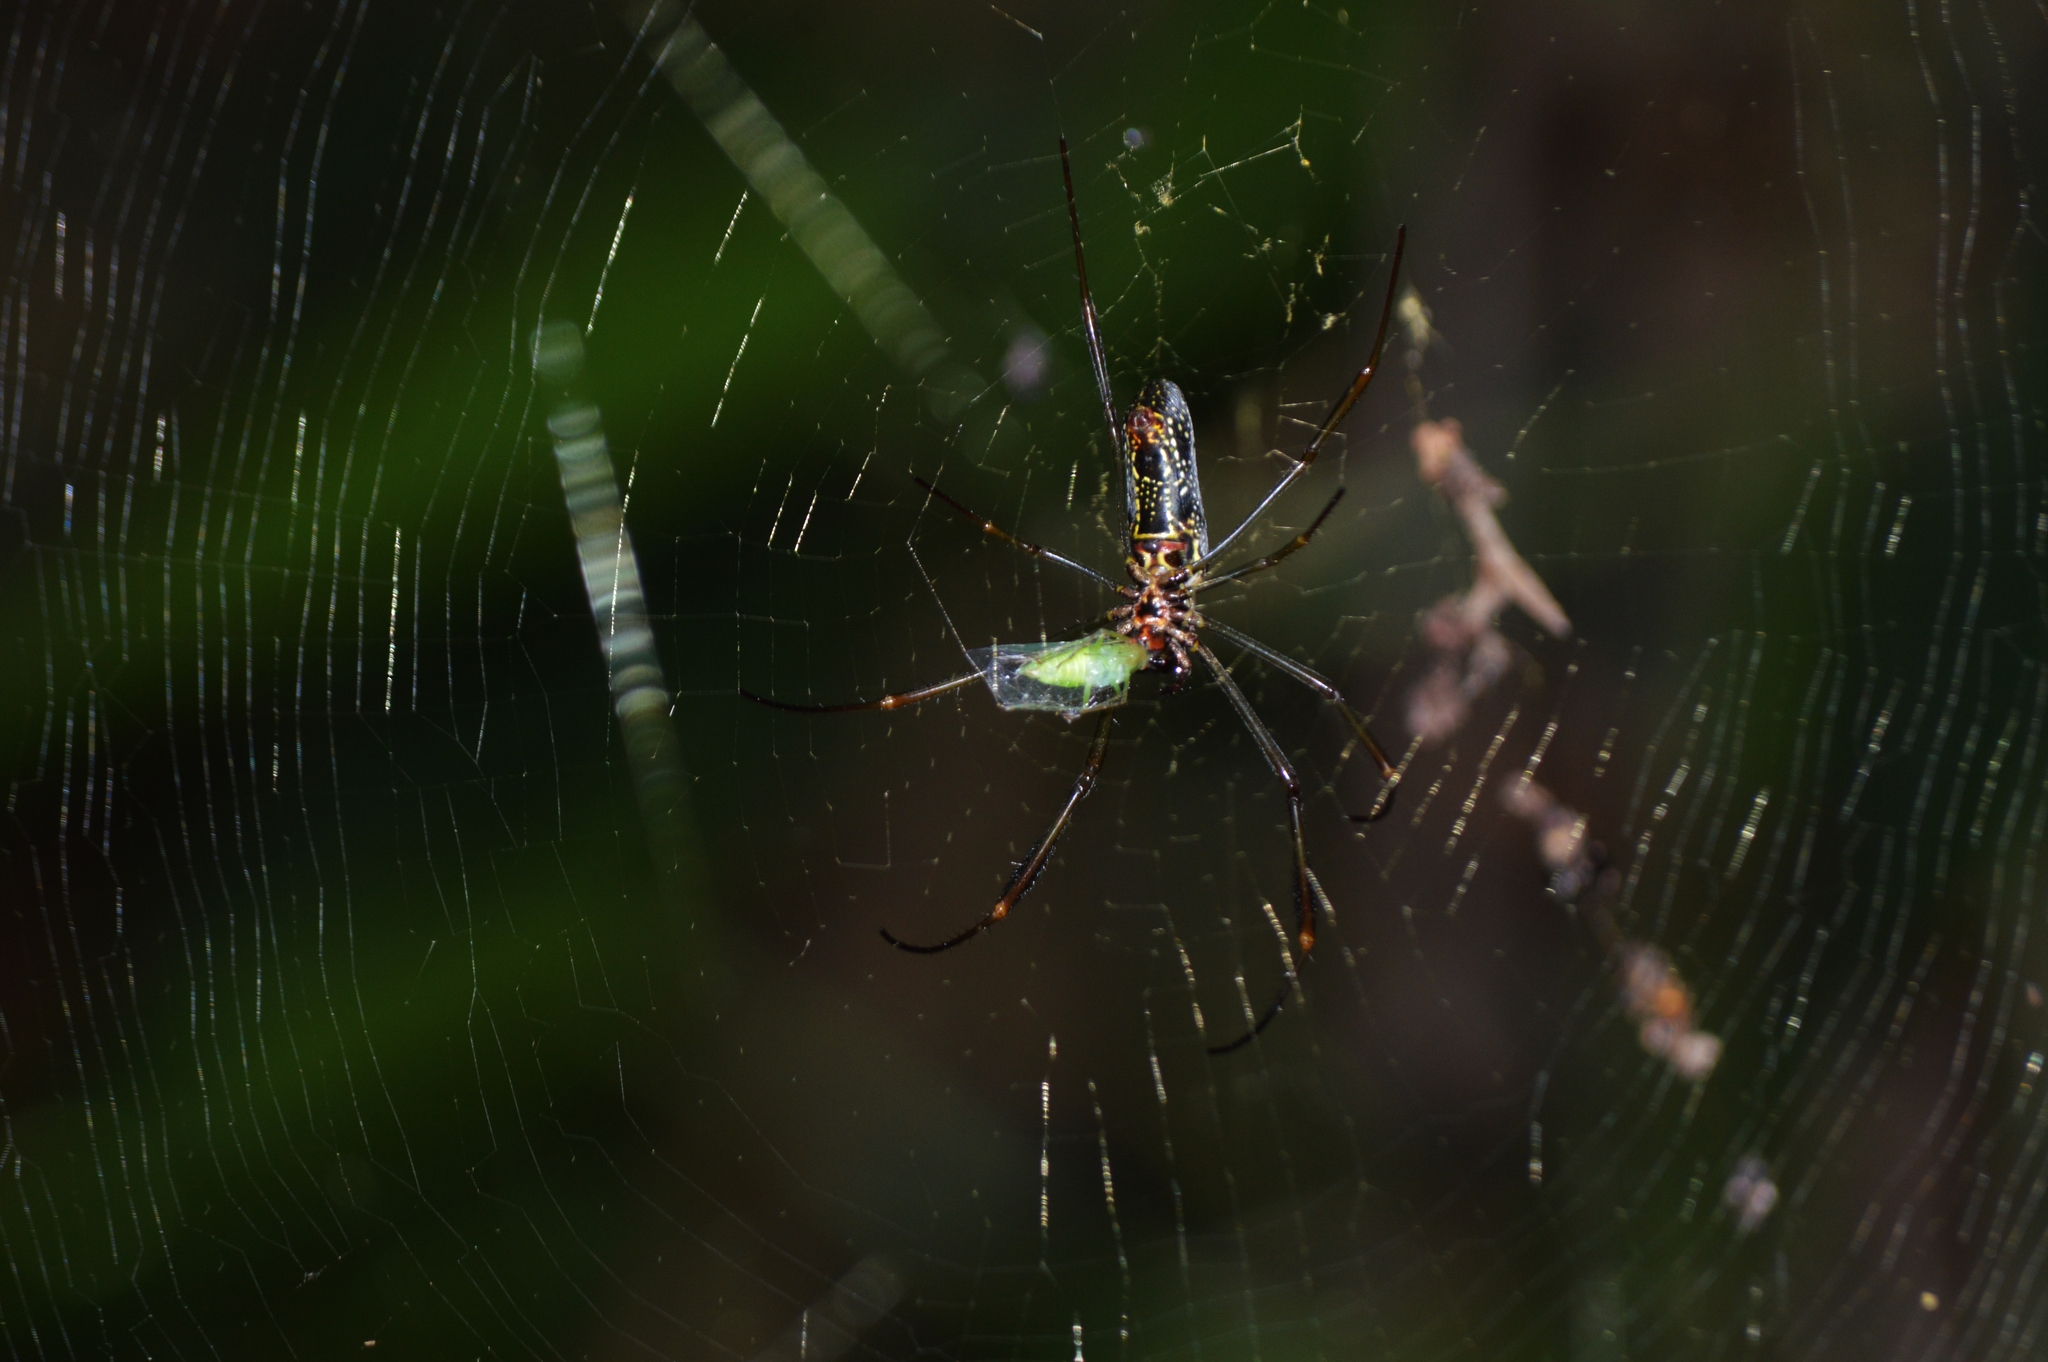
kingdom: Animalia
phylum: Arthropoda
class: Arachnida
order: Araneae
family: Araneidae
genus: Trichonephila
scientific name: Trichonephila clavipes
